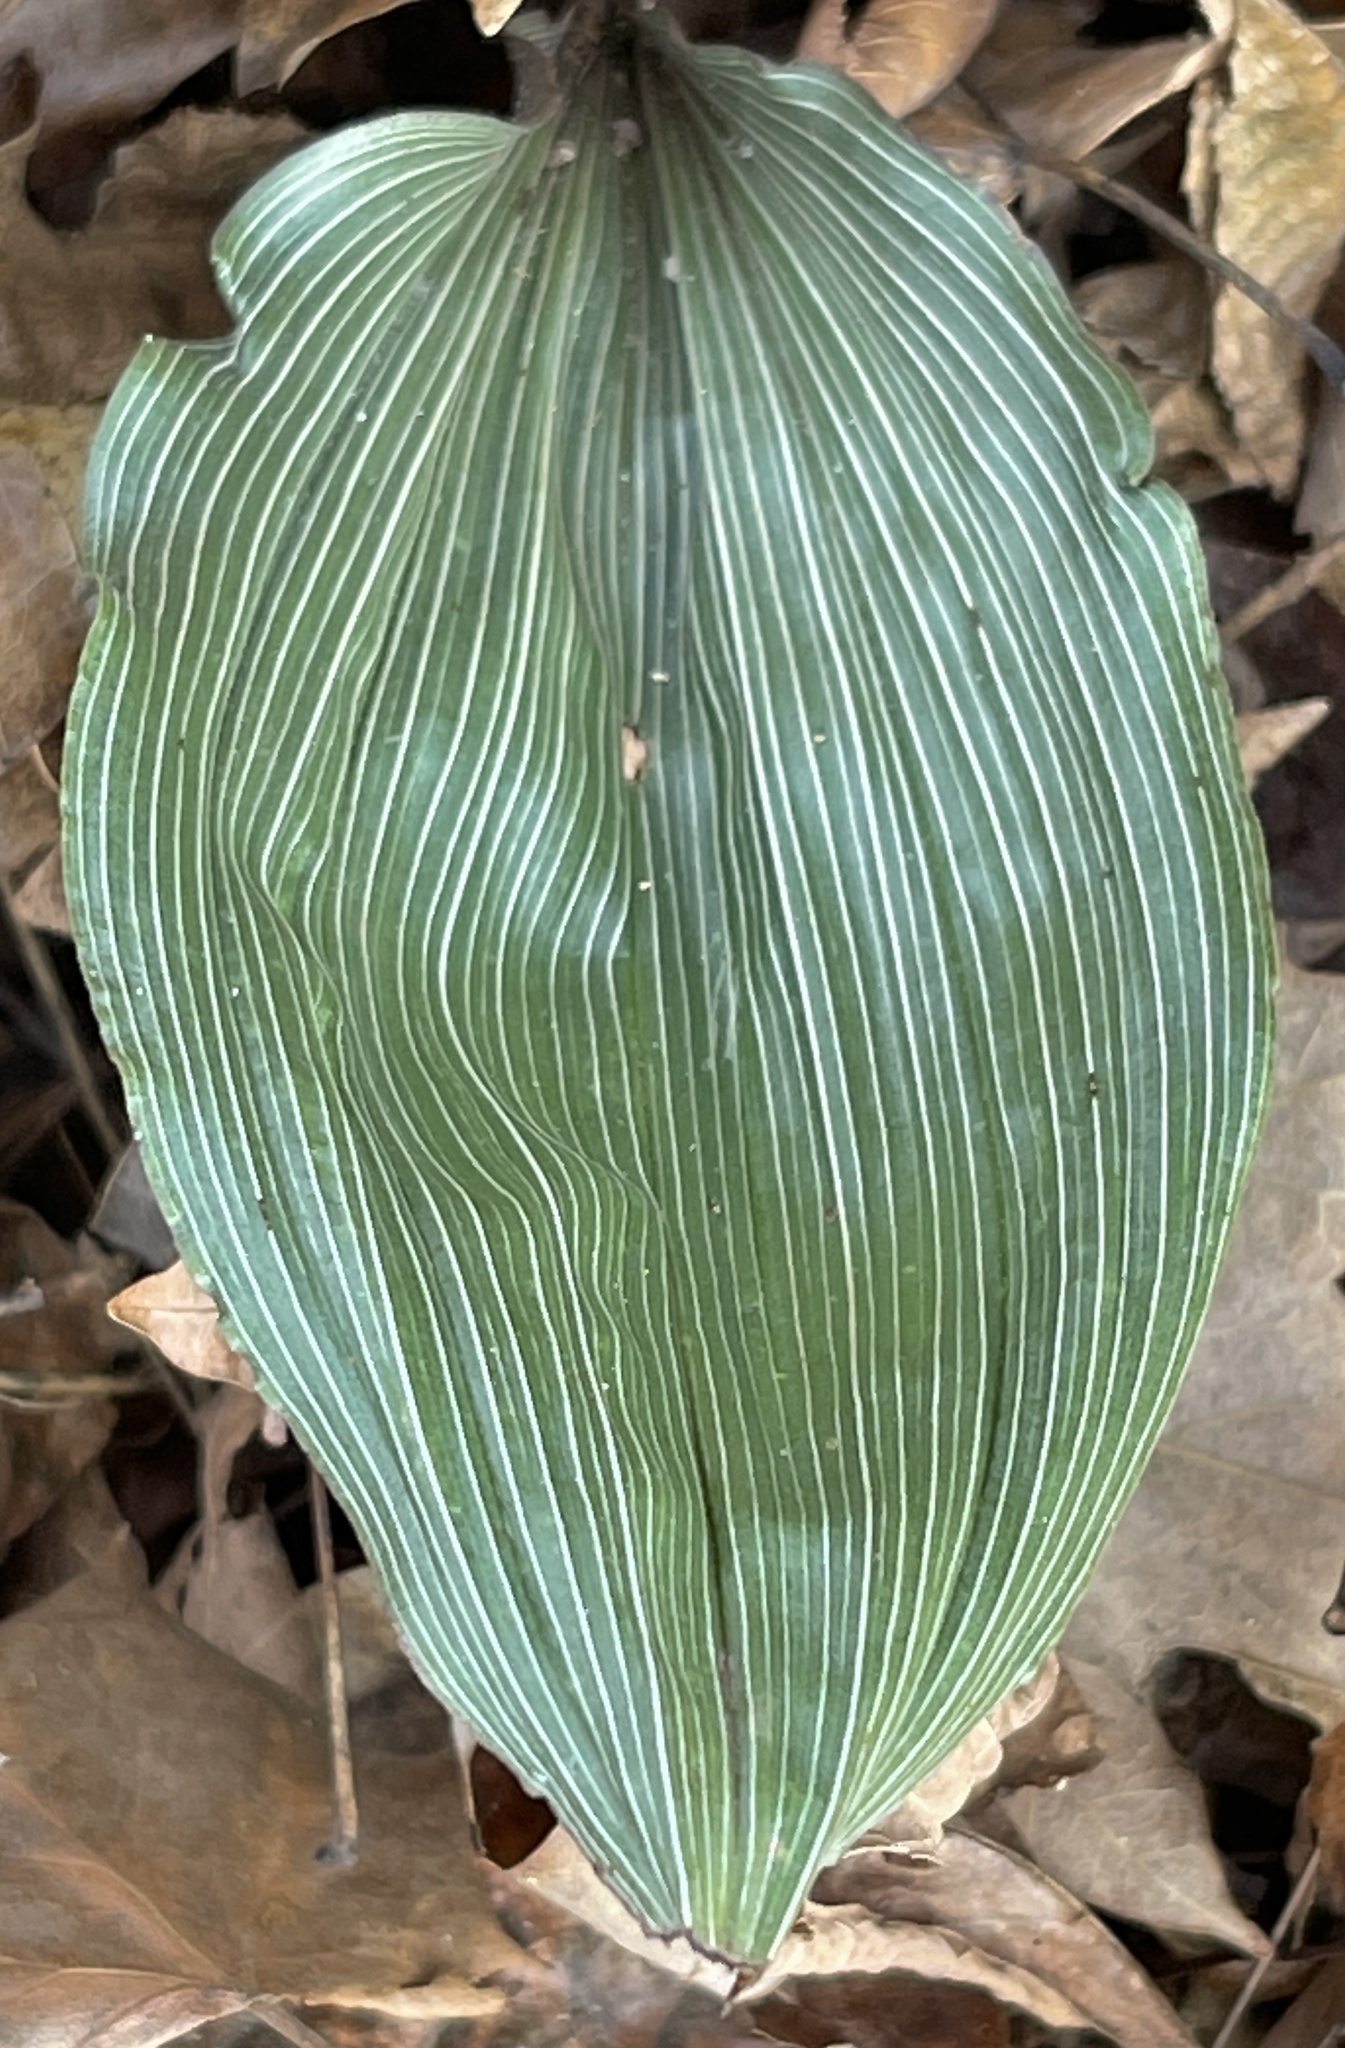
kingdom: Plantae
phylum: Tracheophyta
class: Liliopsida
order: Asparagales
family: Orchidaceae
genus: Aplectrum
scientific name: Aplectrum hyemale
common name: Adam-and-eve
